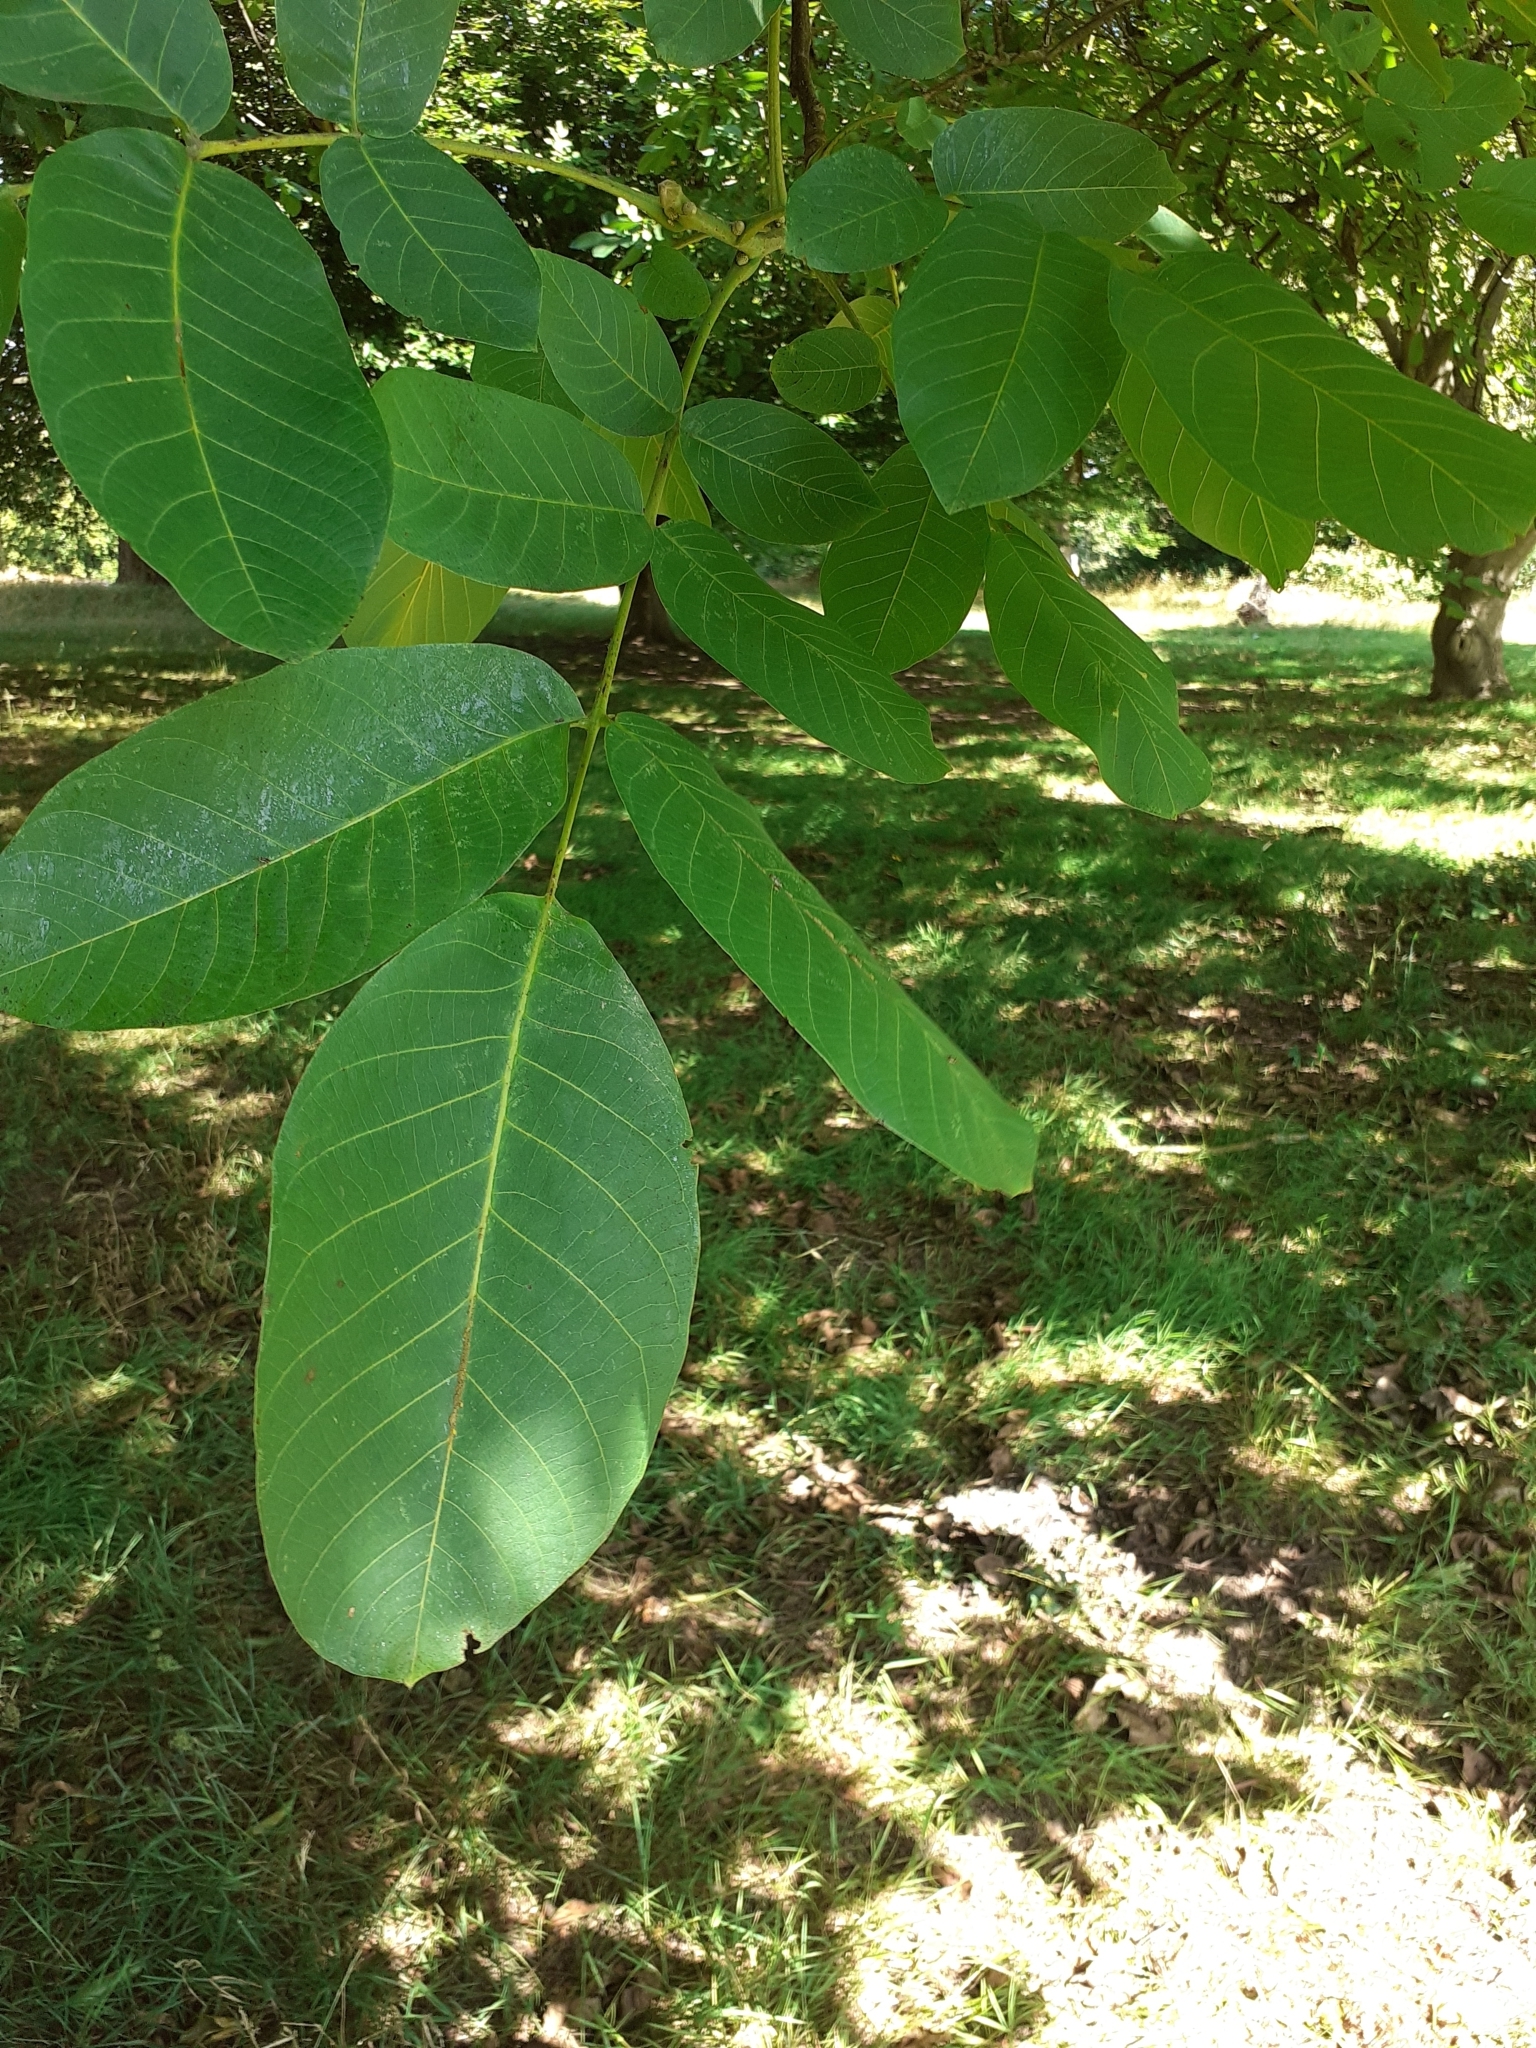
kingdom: Plantae
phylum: Tracheophyta
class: Magnoliopsida
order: Fagales
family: Juglandaceae
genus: Juglans
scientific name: Juglans regia
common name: Walnut
